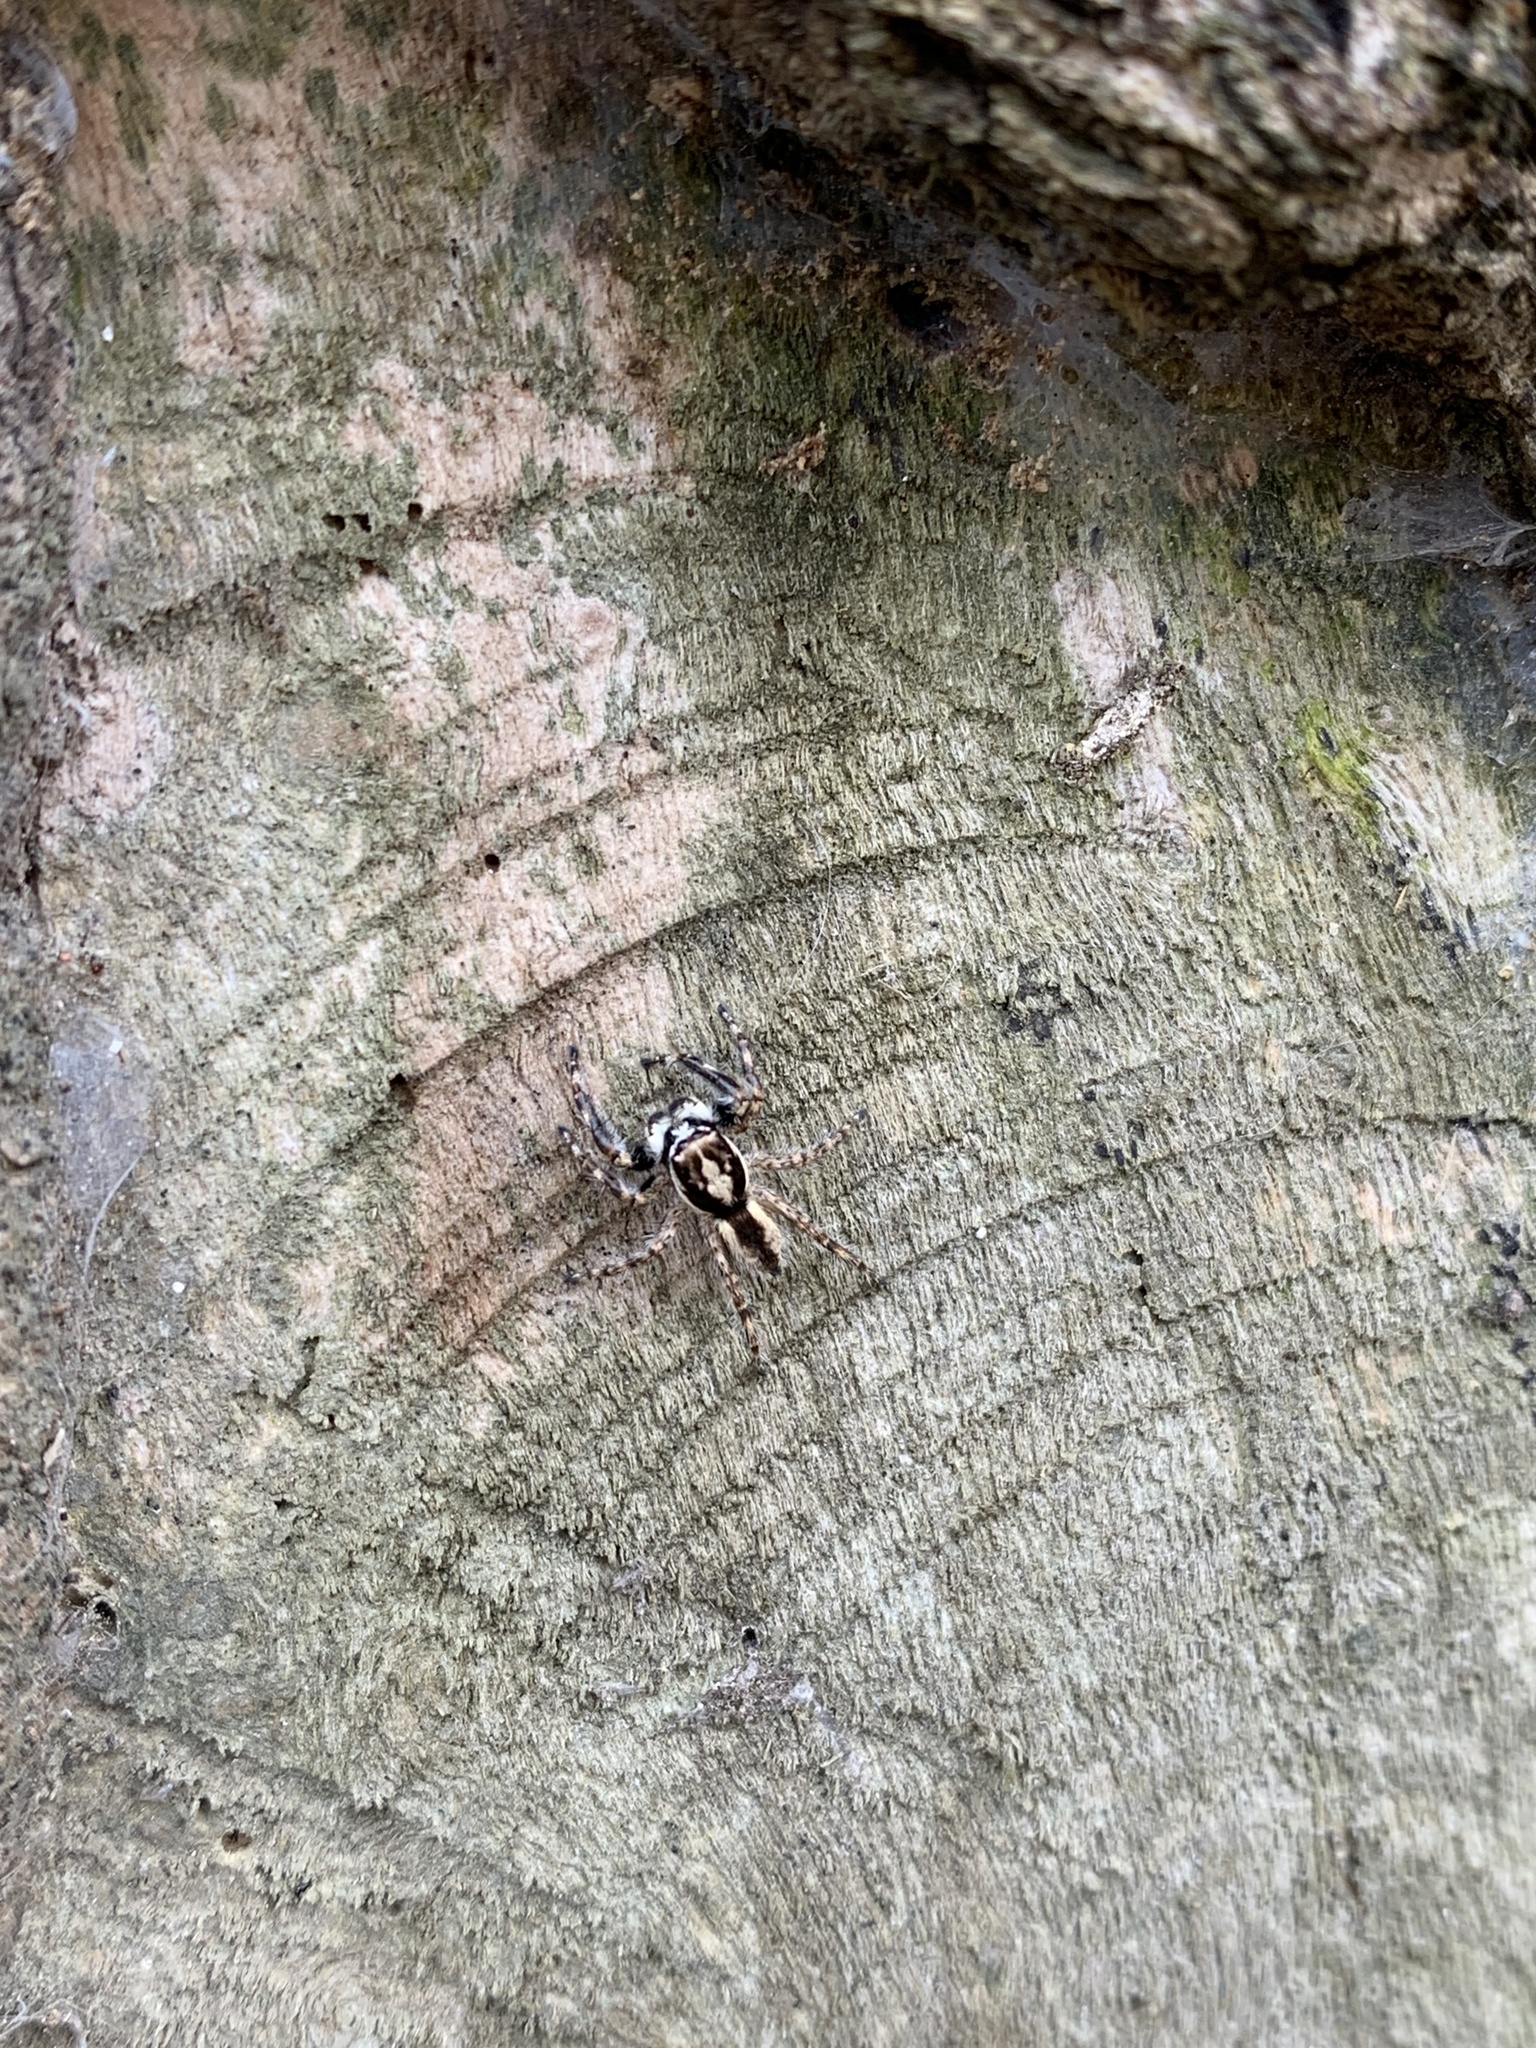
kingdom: Animalia
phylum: Arthropoda
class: Arachnida
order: Araneae
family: Salticidae
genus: Menemerus
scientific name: Menemerus bivittatus
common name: Gray wall jumper
